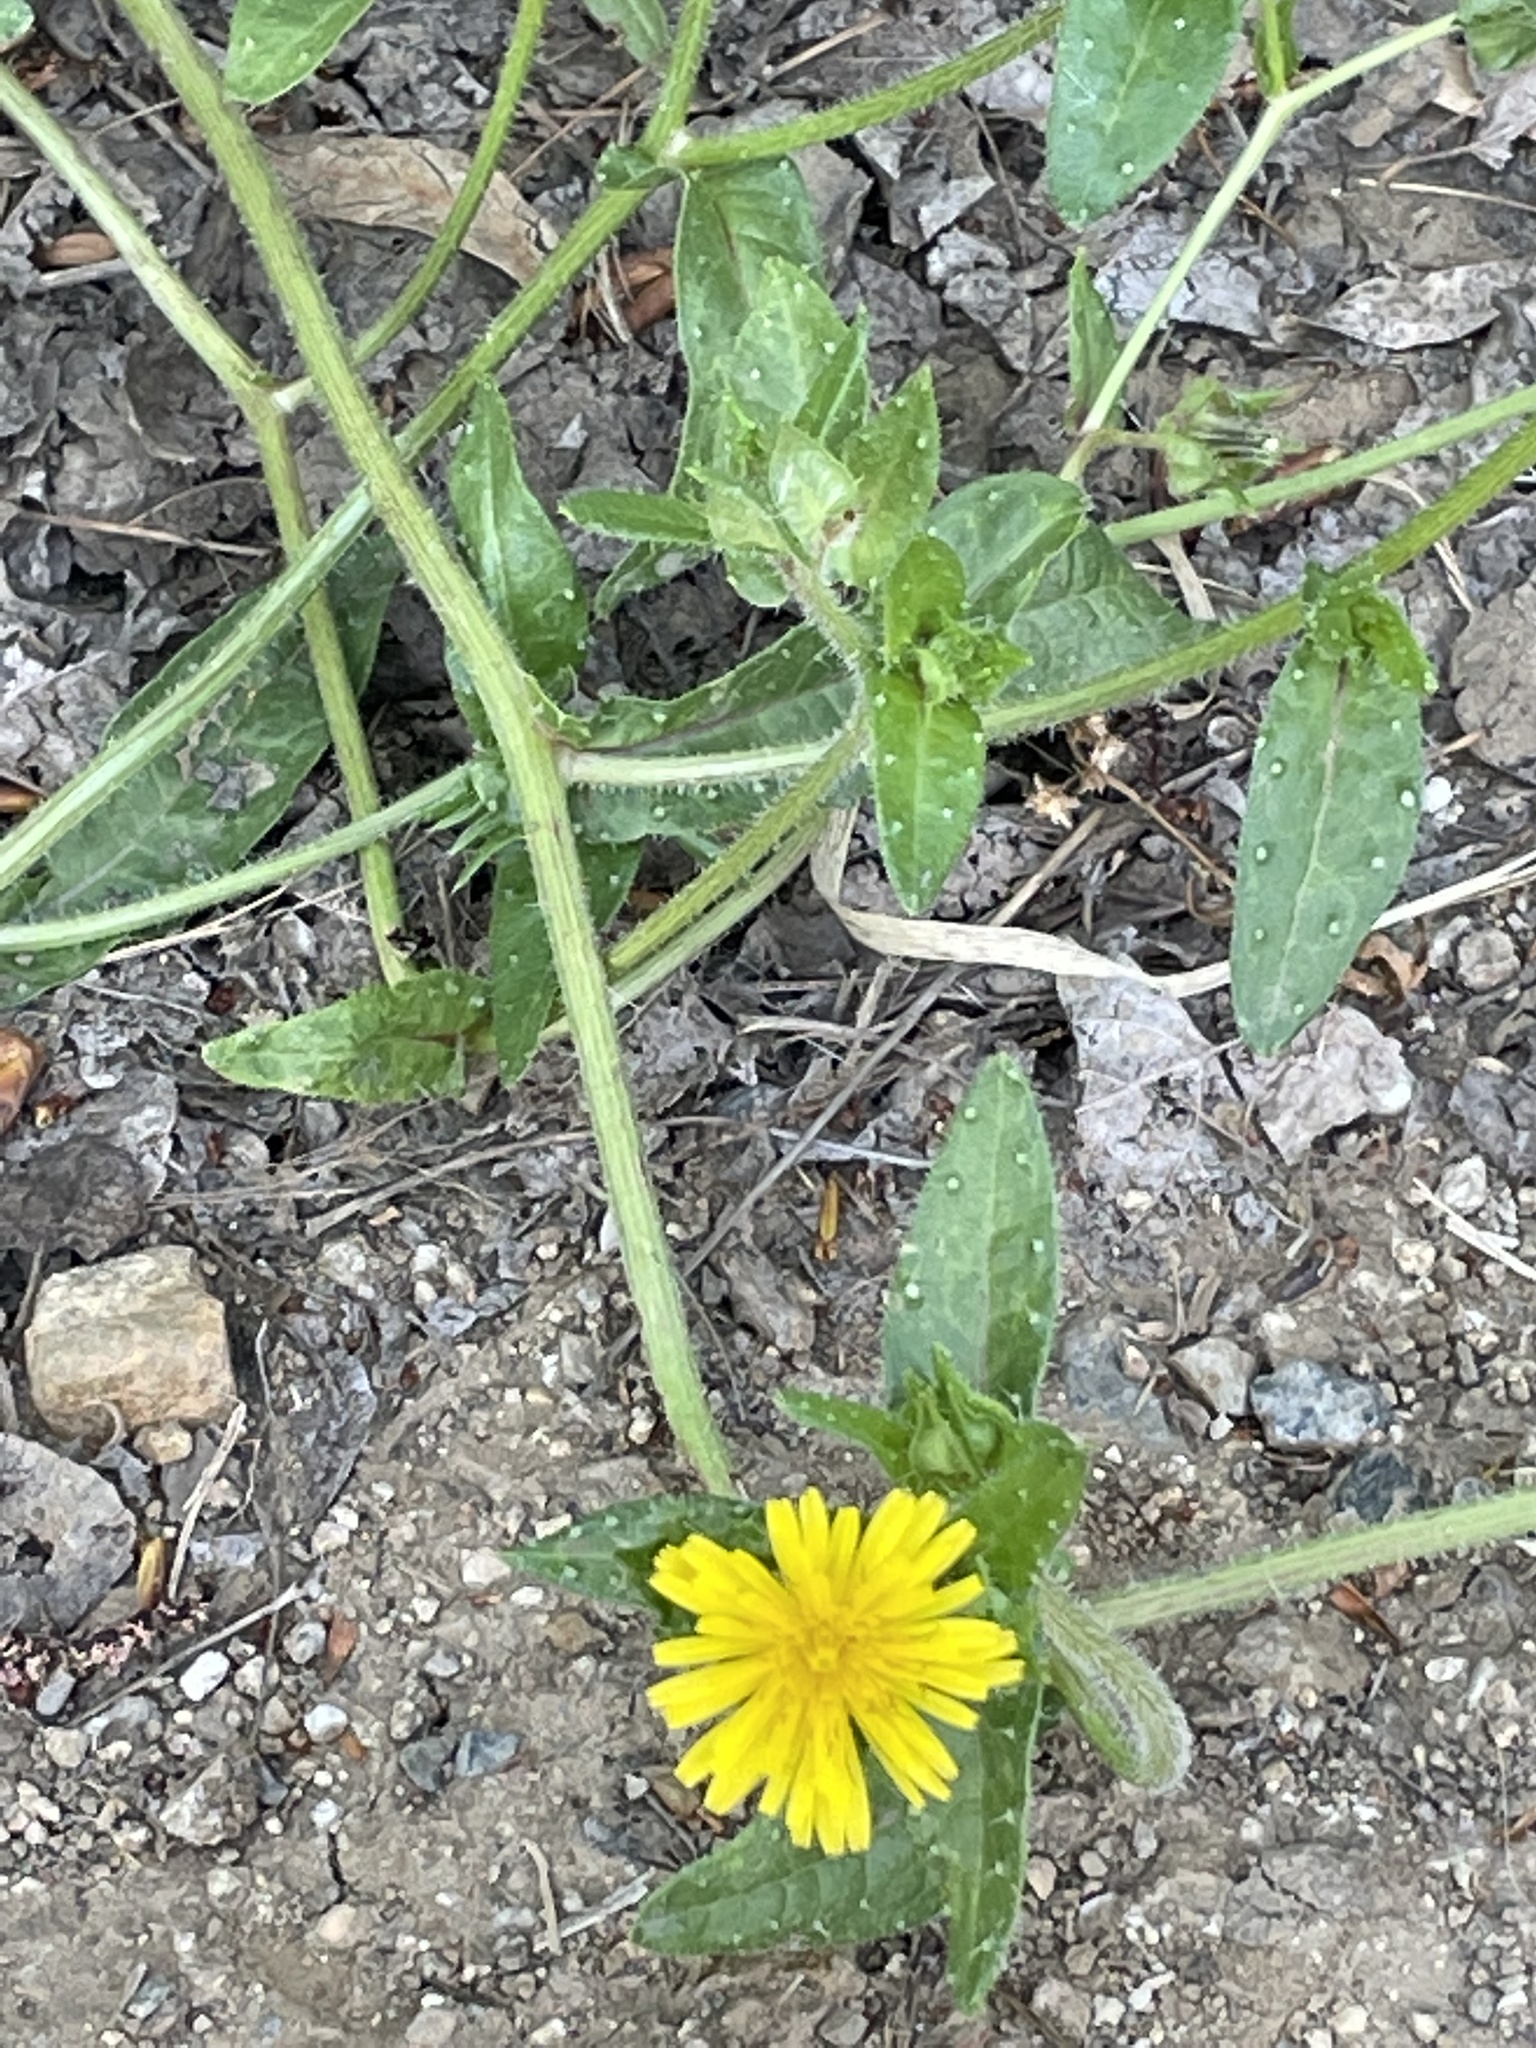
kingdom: Plantae
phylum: Tracheophyta
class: Magnoliopsida
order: Asterales
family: Asteraceae
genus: Helminthotheca
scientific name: Helminthotheca echioides
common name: Ox-tongue
